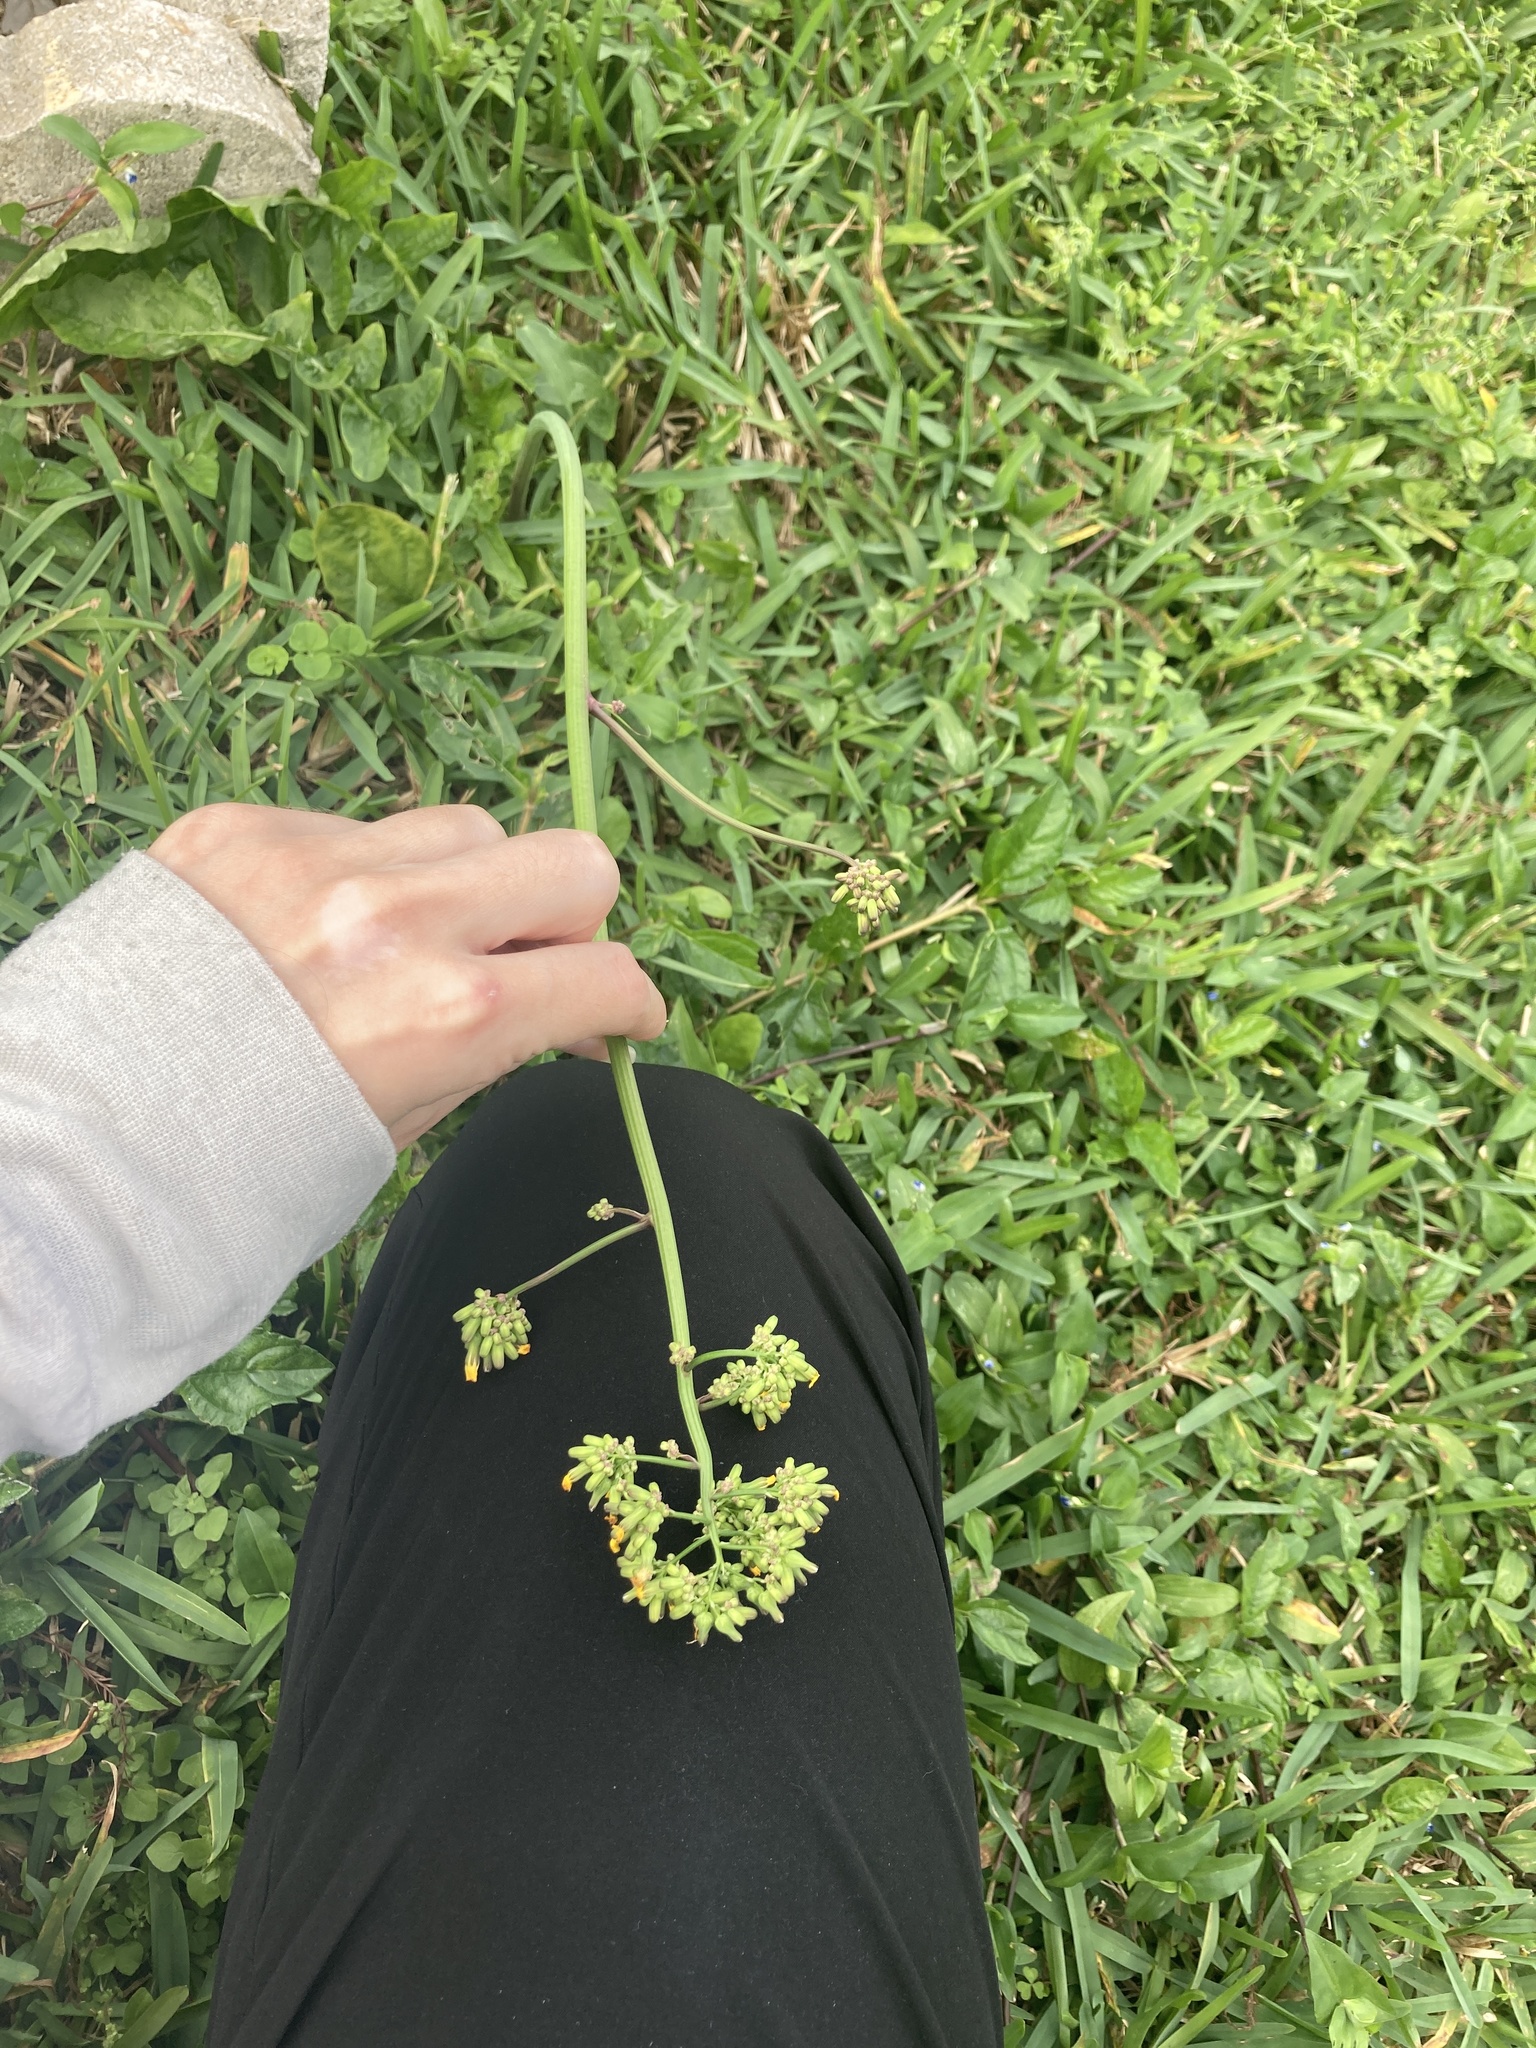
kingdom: Plantae
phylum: Tracheophyta
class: Magnoliopsida
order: Asterales
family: Asteraceae
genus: Youngia
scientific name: Youngia japonica
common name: Oriental false hawksbeard
